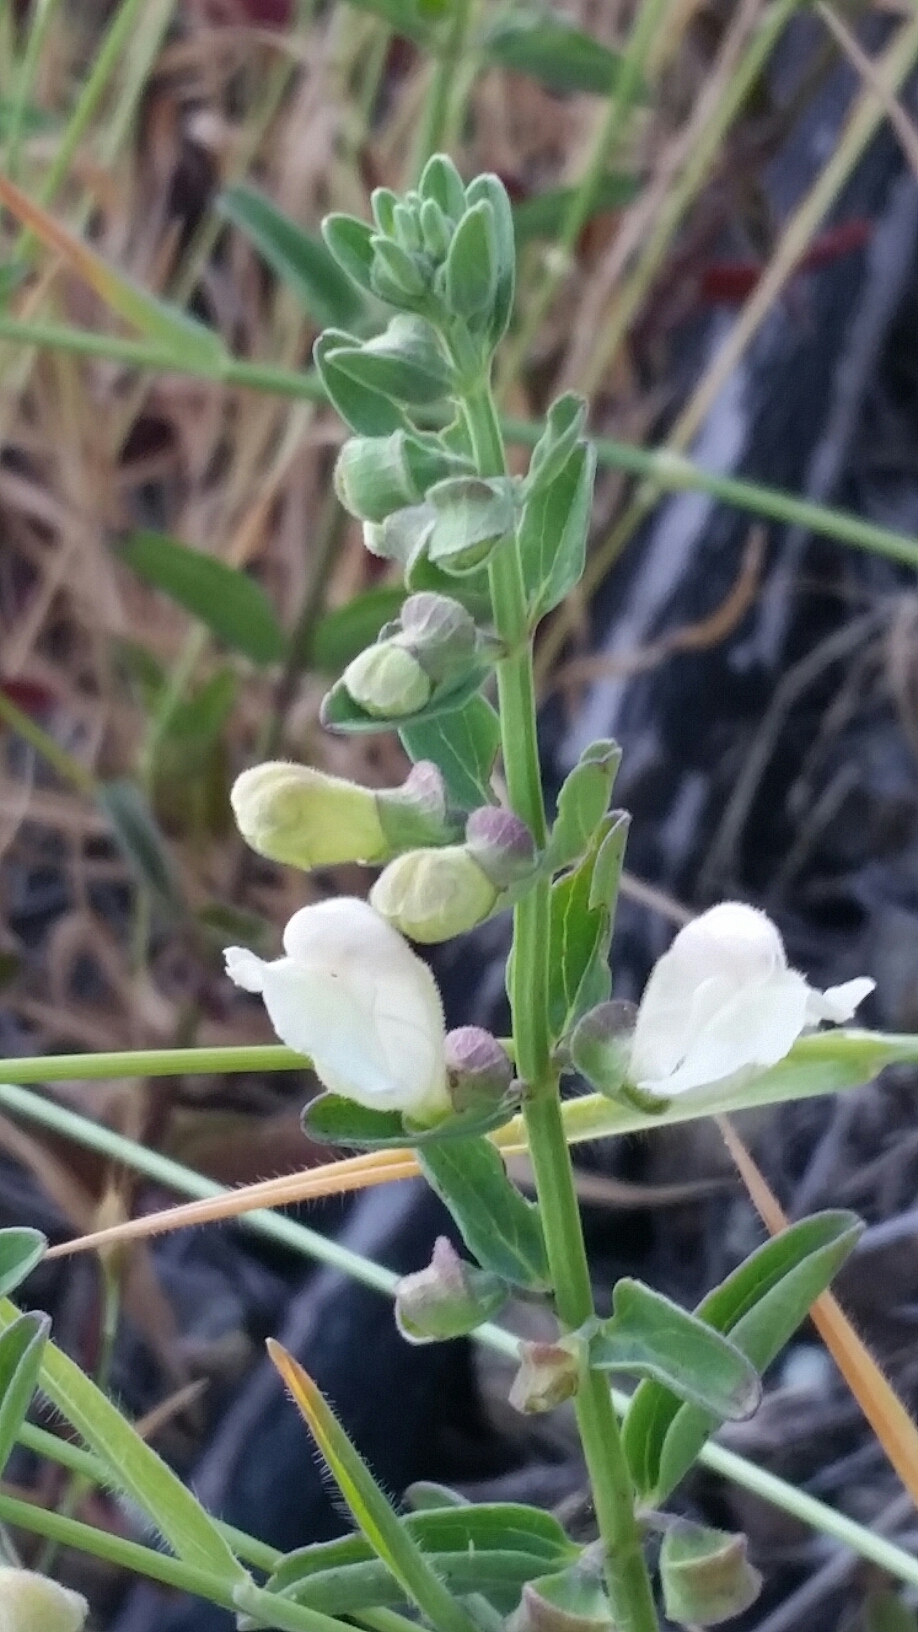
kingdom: Plantae
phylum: Tracheophyta
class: Magnoliopsida
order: Lamiales
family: Lamiaceae
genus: Scutellaria
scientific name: Scutellaria californica
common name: California scullcap
